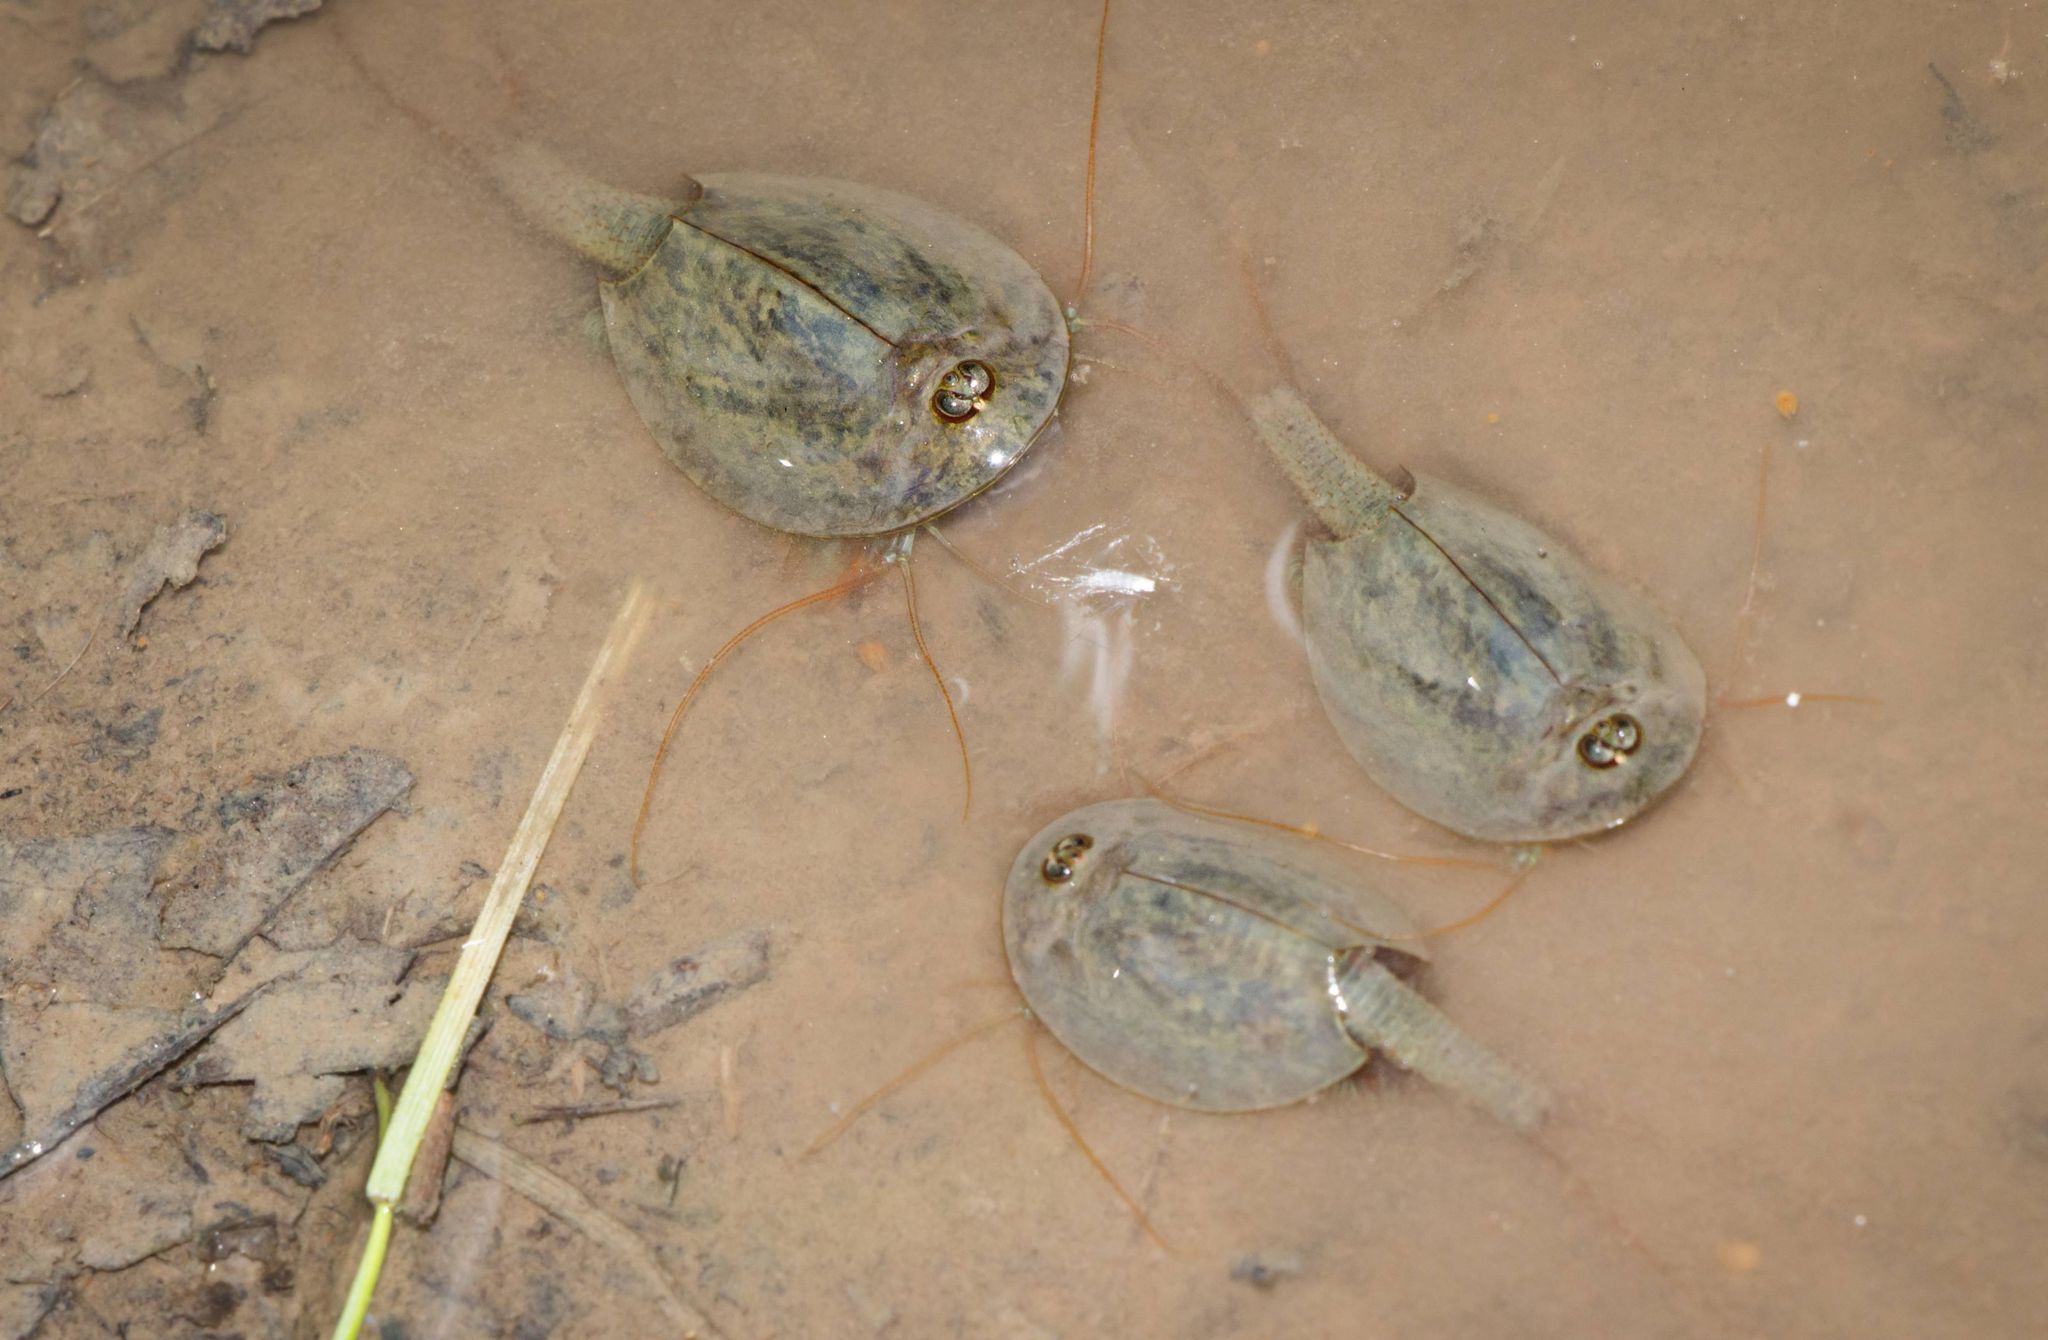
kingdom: Animalia
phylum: Arthropoda
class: Branchiopoda
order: Notostraca
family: Triopsidae
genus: Triops
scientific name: Triops cancriformis
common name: Tadpole shrimp
